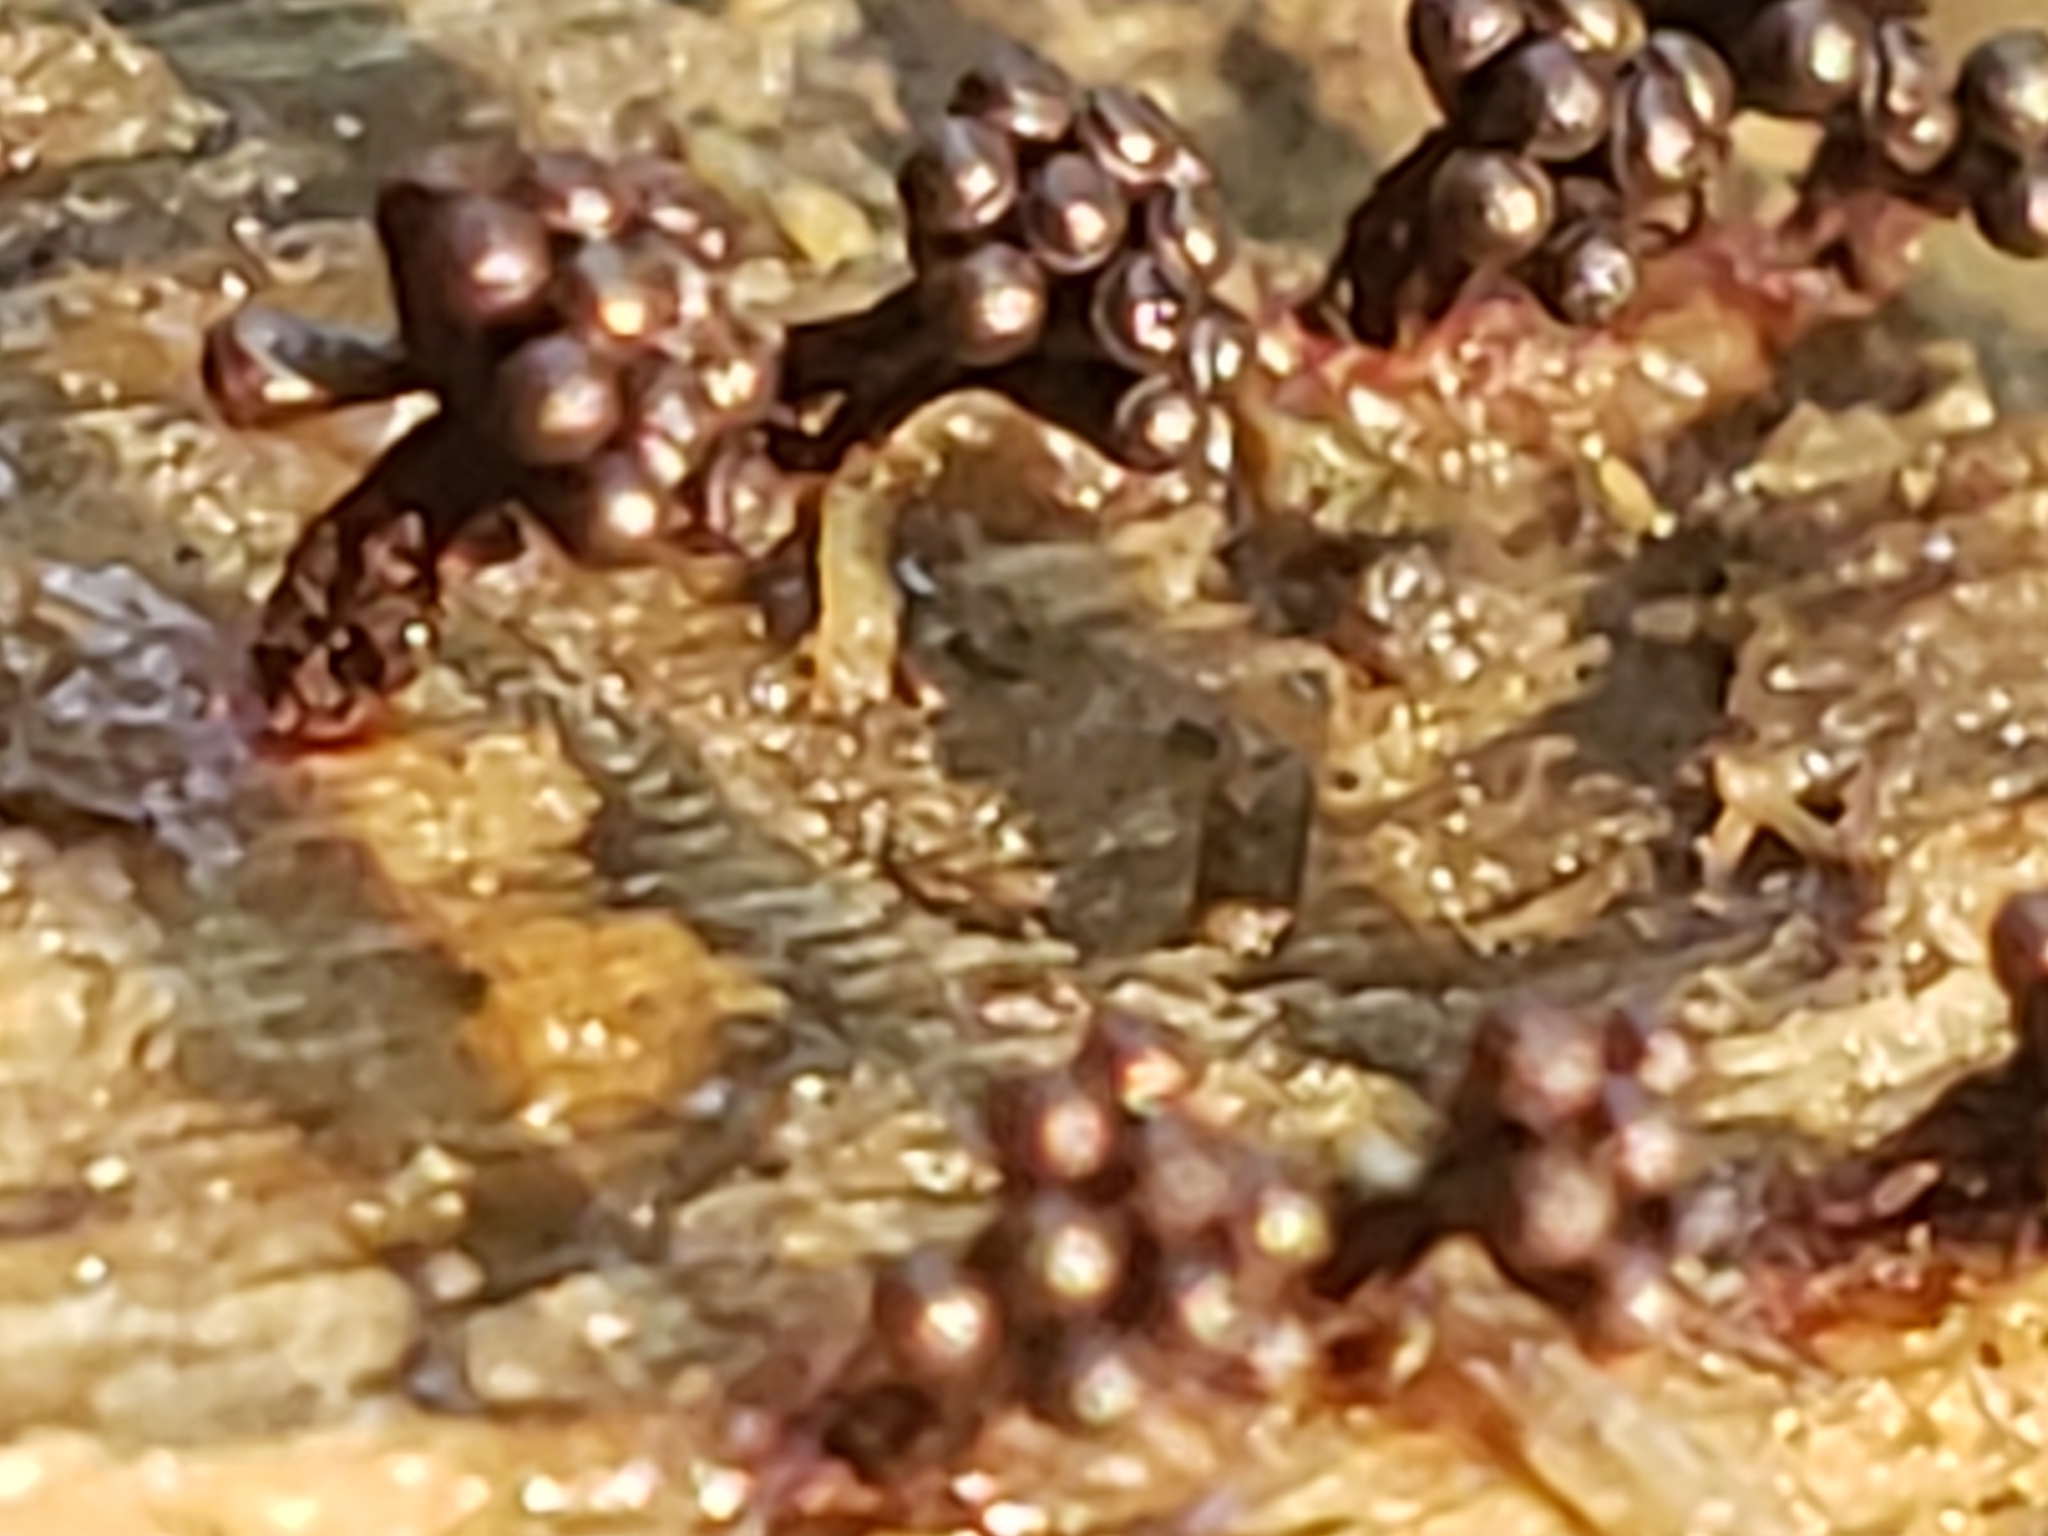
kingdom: Protozoa
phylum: Mycetozoa
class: Myxomycetes
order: Trichiales
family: Trichiaceae
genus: Metatrichia
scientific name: Metatrichia vesparia
